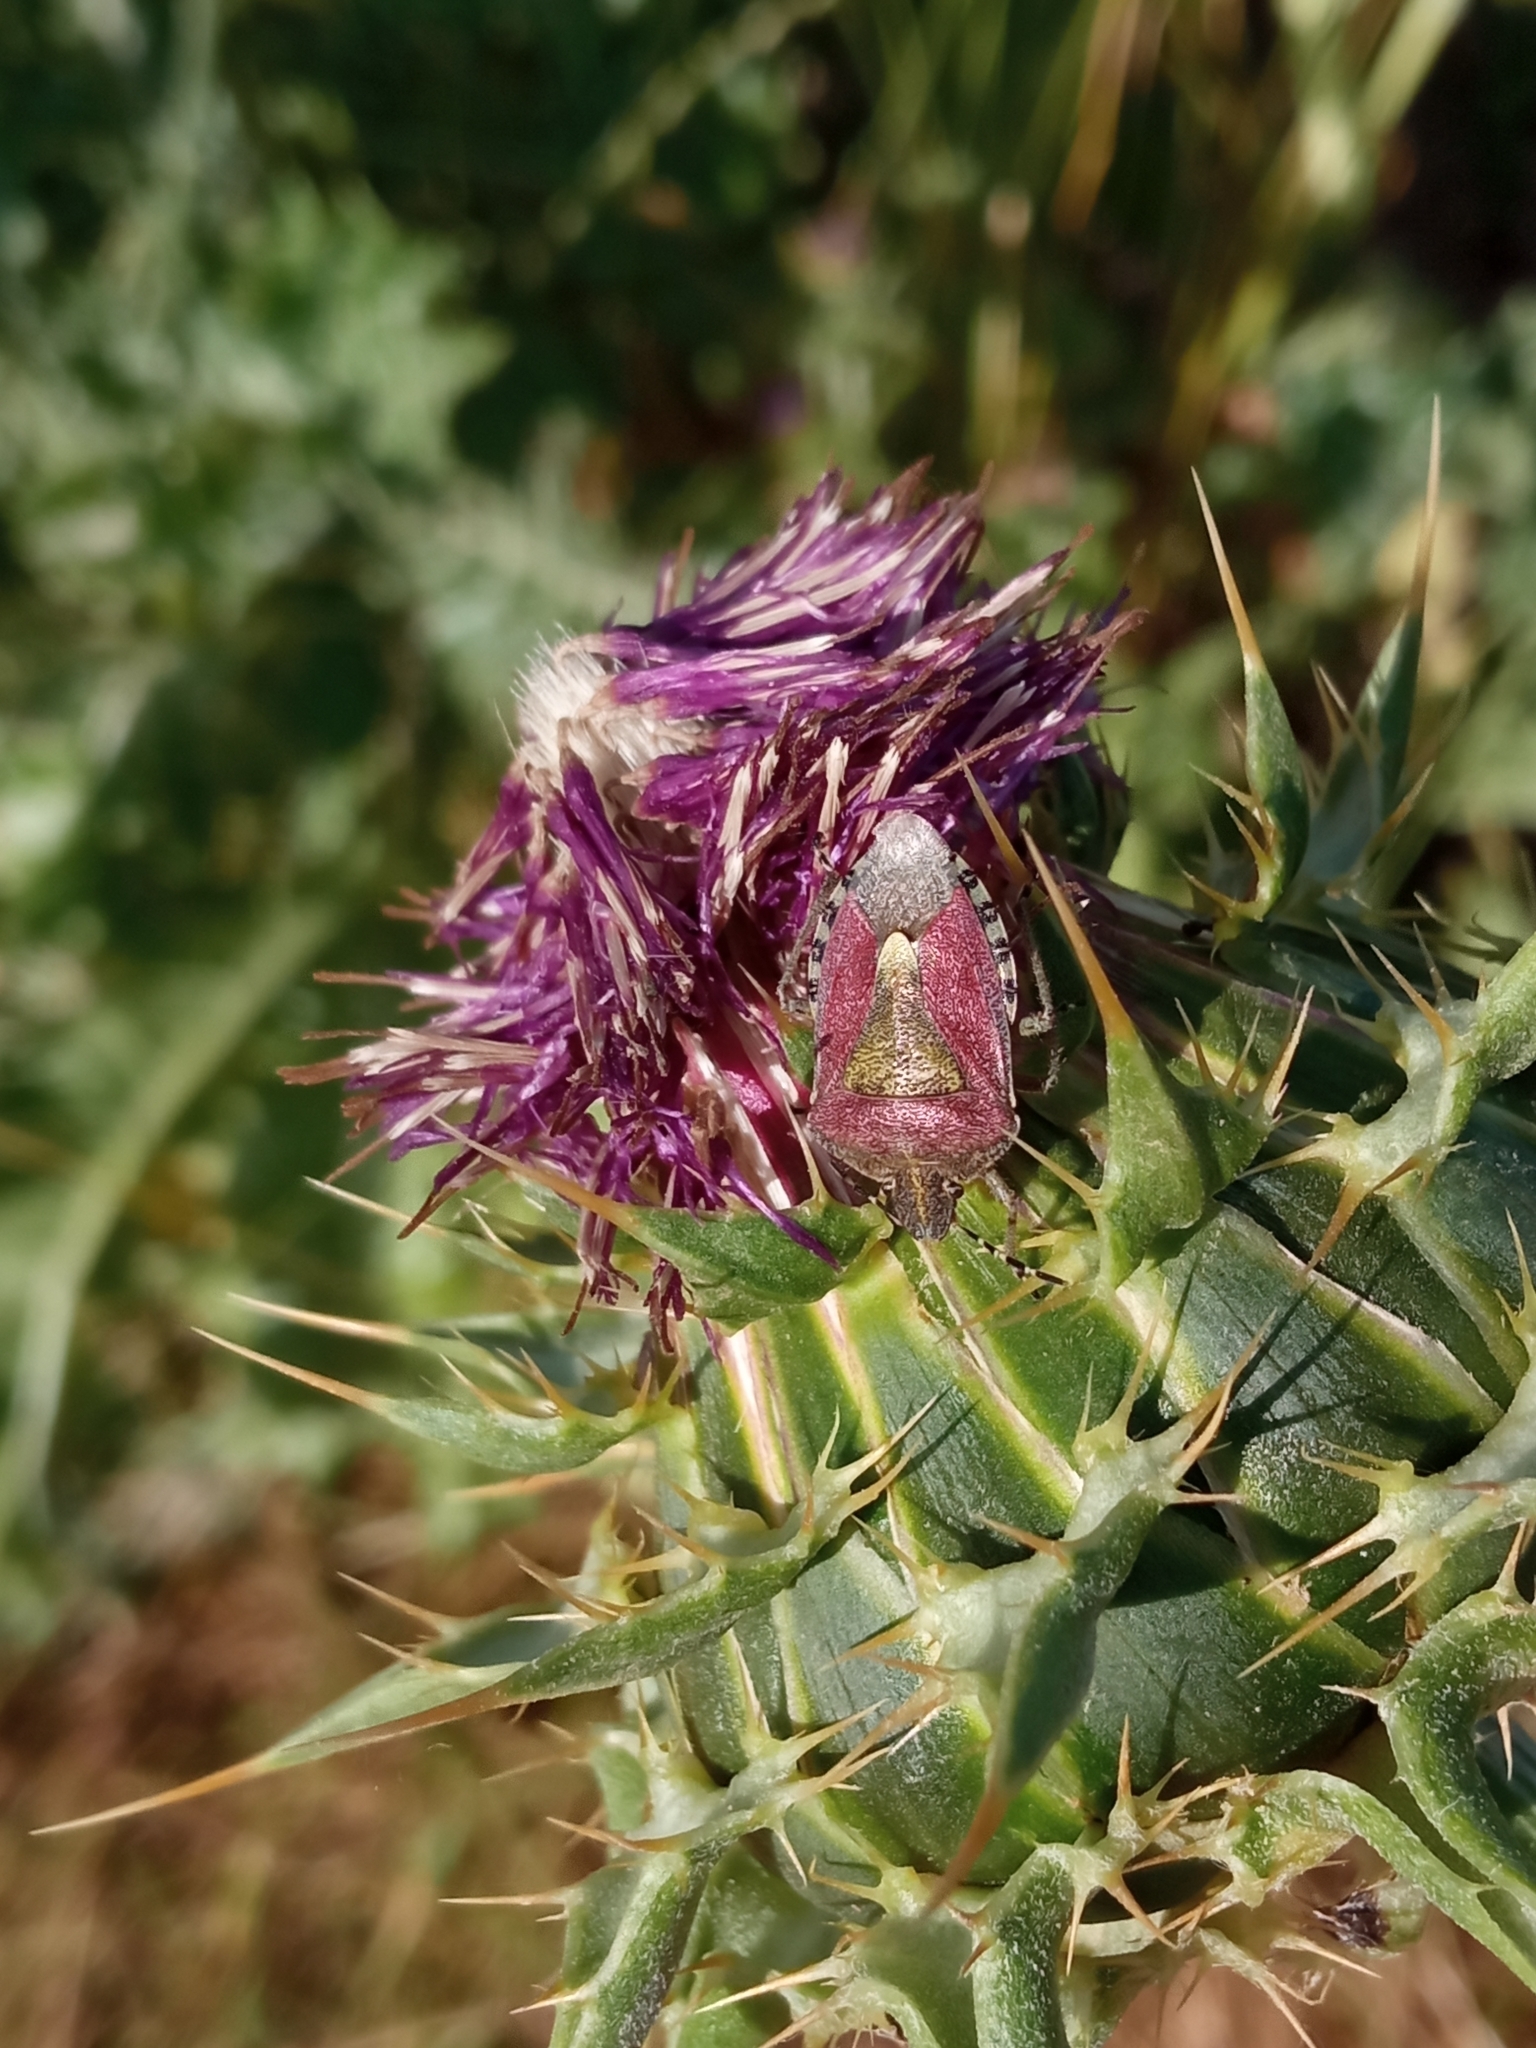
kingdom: Animalia
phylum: Arthropoda
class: Insecta
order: Hemiptera
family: Pentatomidae
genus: Dolycoris
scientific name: Dolycoris baccarum
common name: Sloe bug
